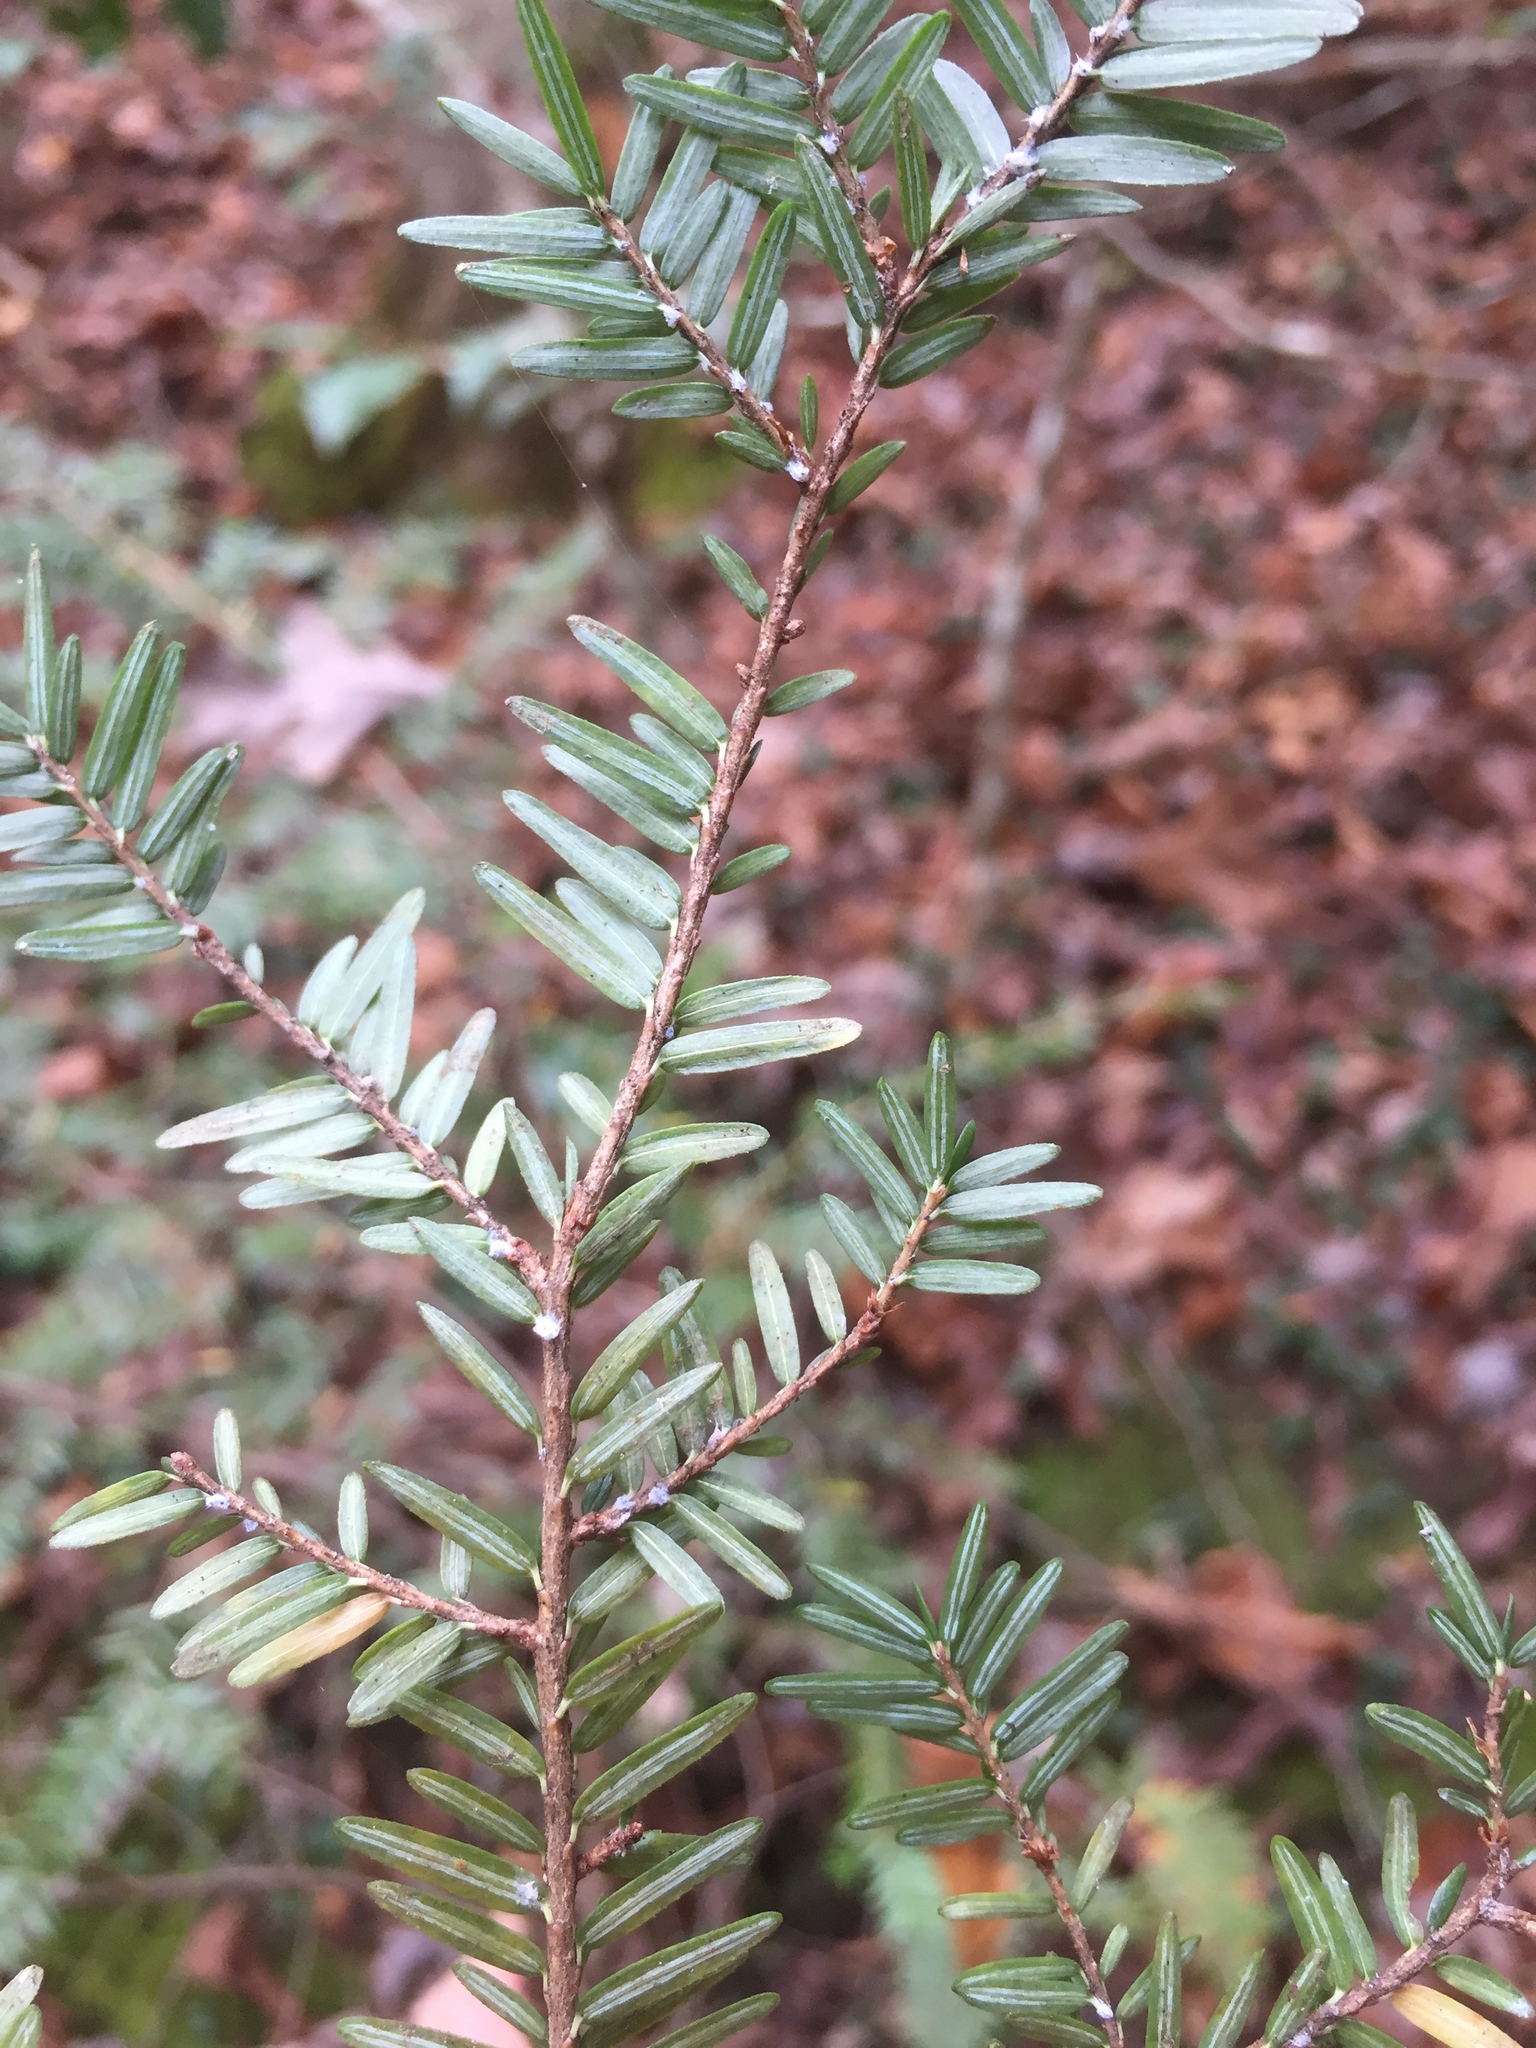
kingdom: Plantae
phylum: Tracheophyta
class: Pinopsida
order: Pinales
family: Pinaceae
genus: Tsuga
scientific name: Tsuga canadensis
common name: Eastern hemlock
